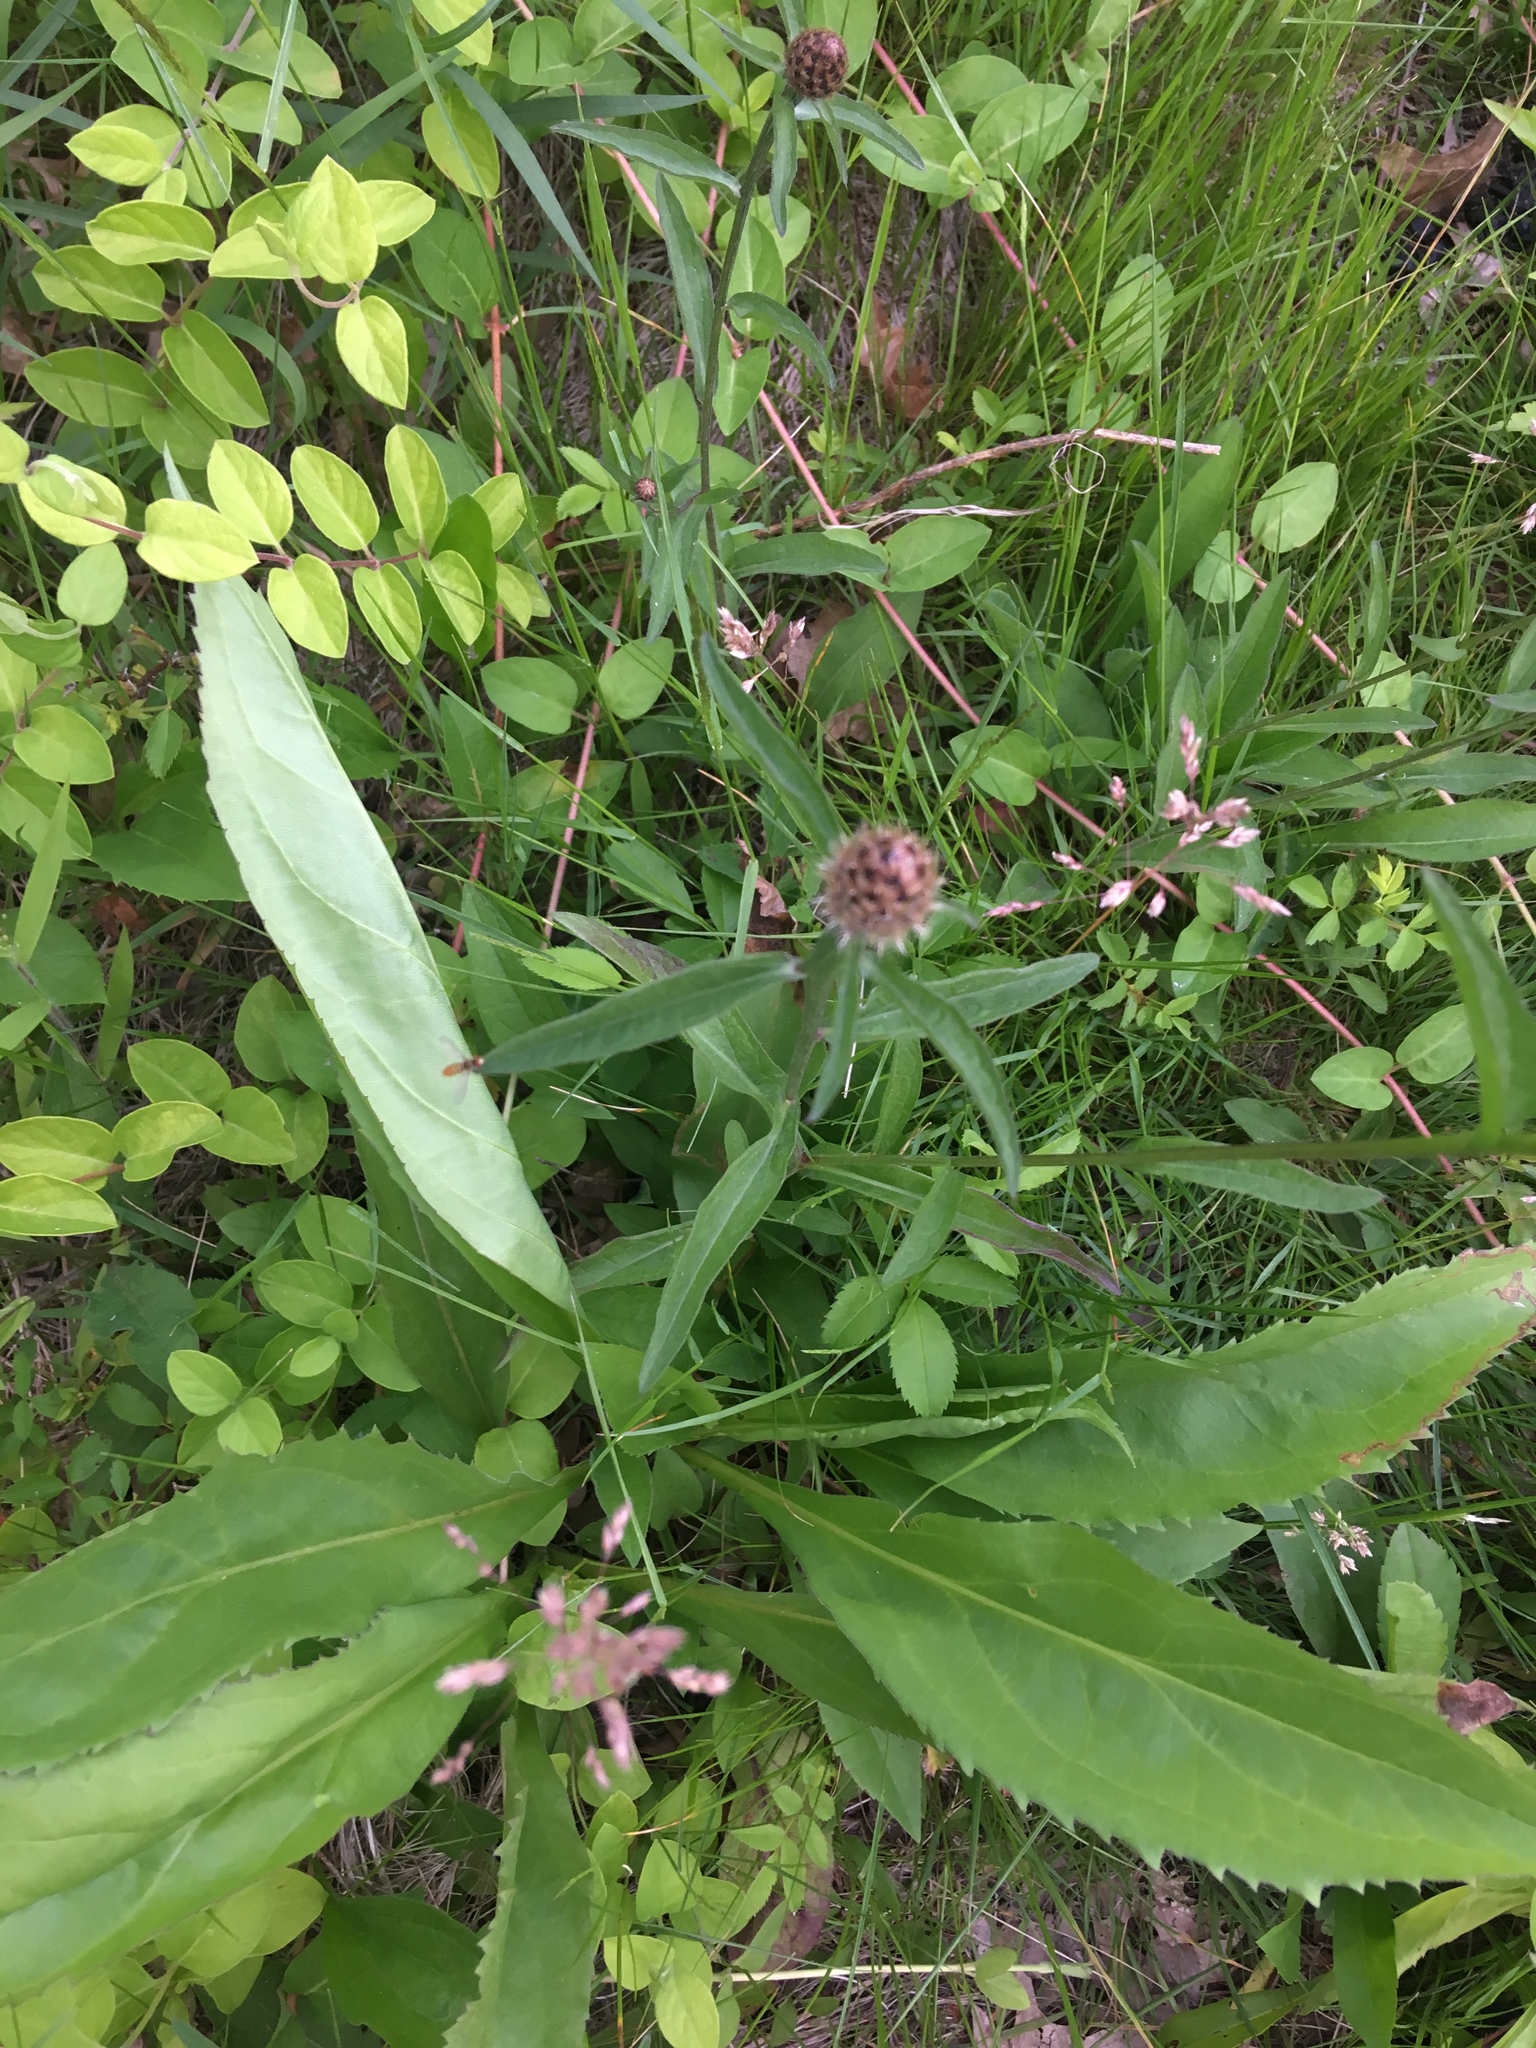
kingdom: Plantae
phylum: Tracheophyta
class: Magnoliopsida
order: Asterales
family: Asteraceae
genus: Centaurea
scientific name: Centaurea jacea
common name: Brown knapweed
